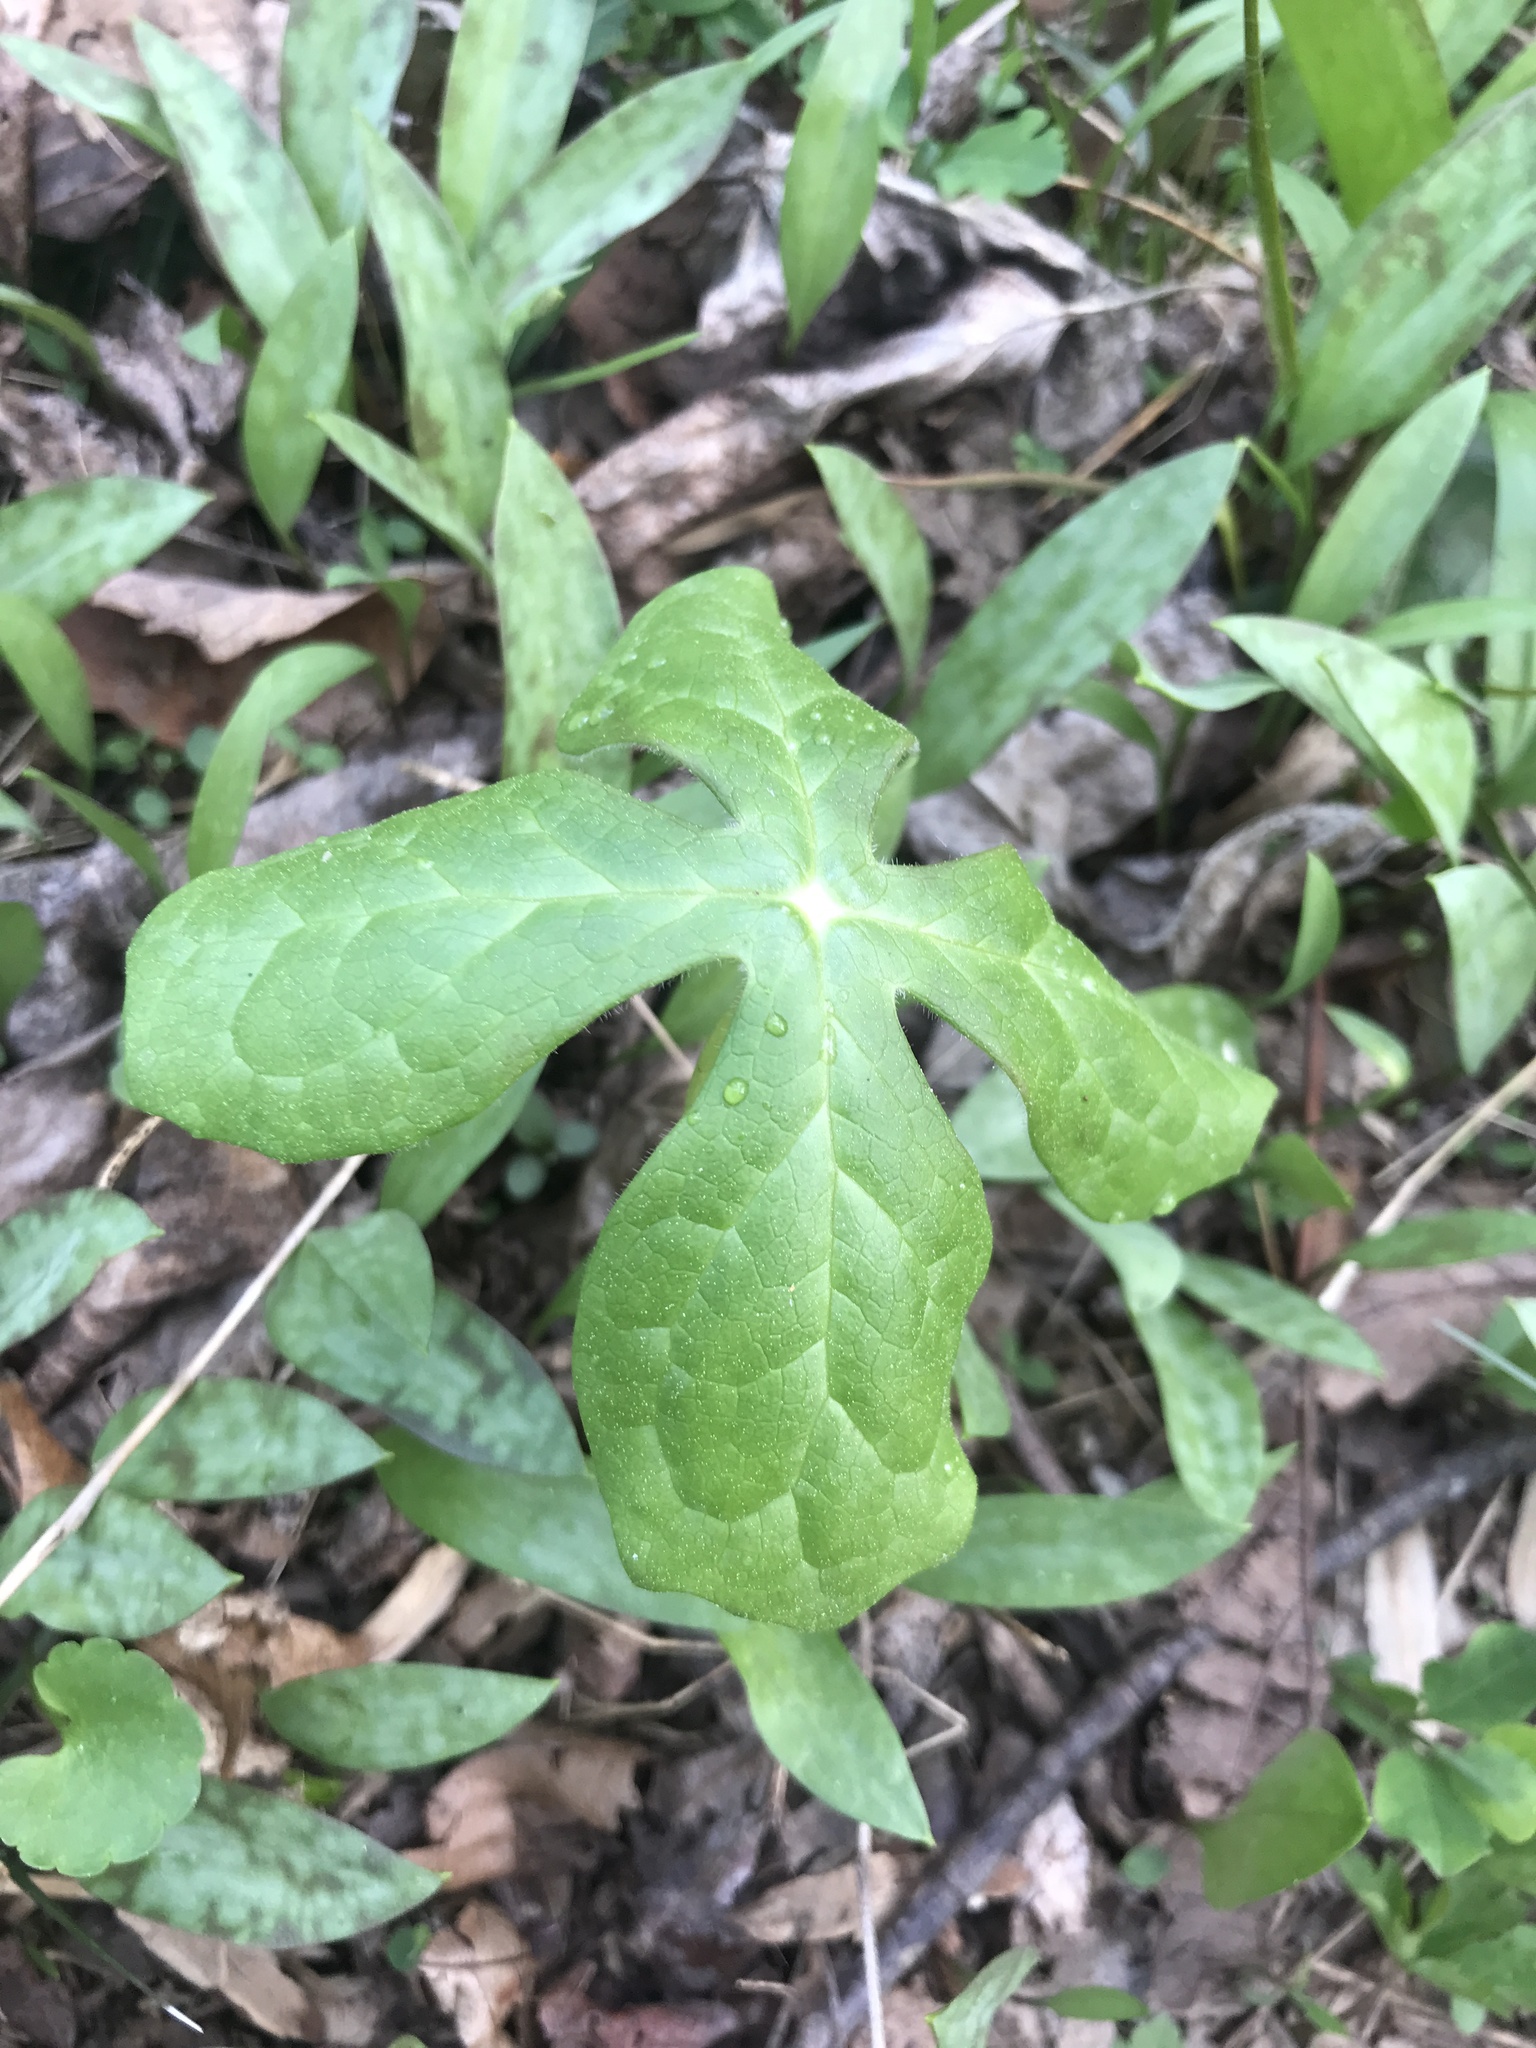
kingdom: Plantae
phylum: Tracheophyta
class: Magnoliopsida
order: Ranunculales
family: Berberidaceae
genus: Podophyllum
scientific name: Podophyllum peltatum
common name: Wild mandrake
